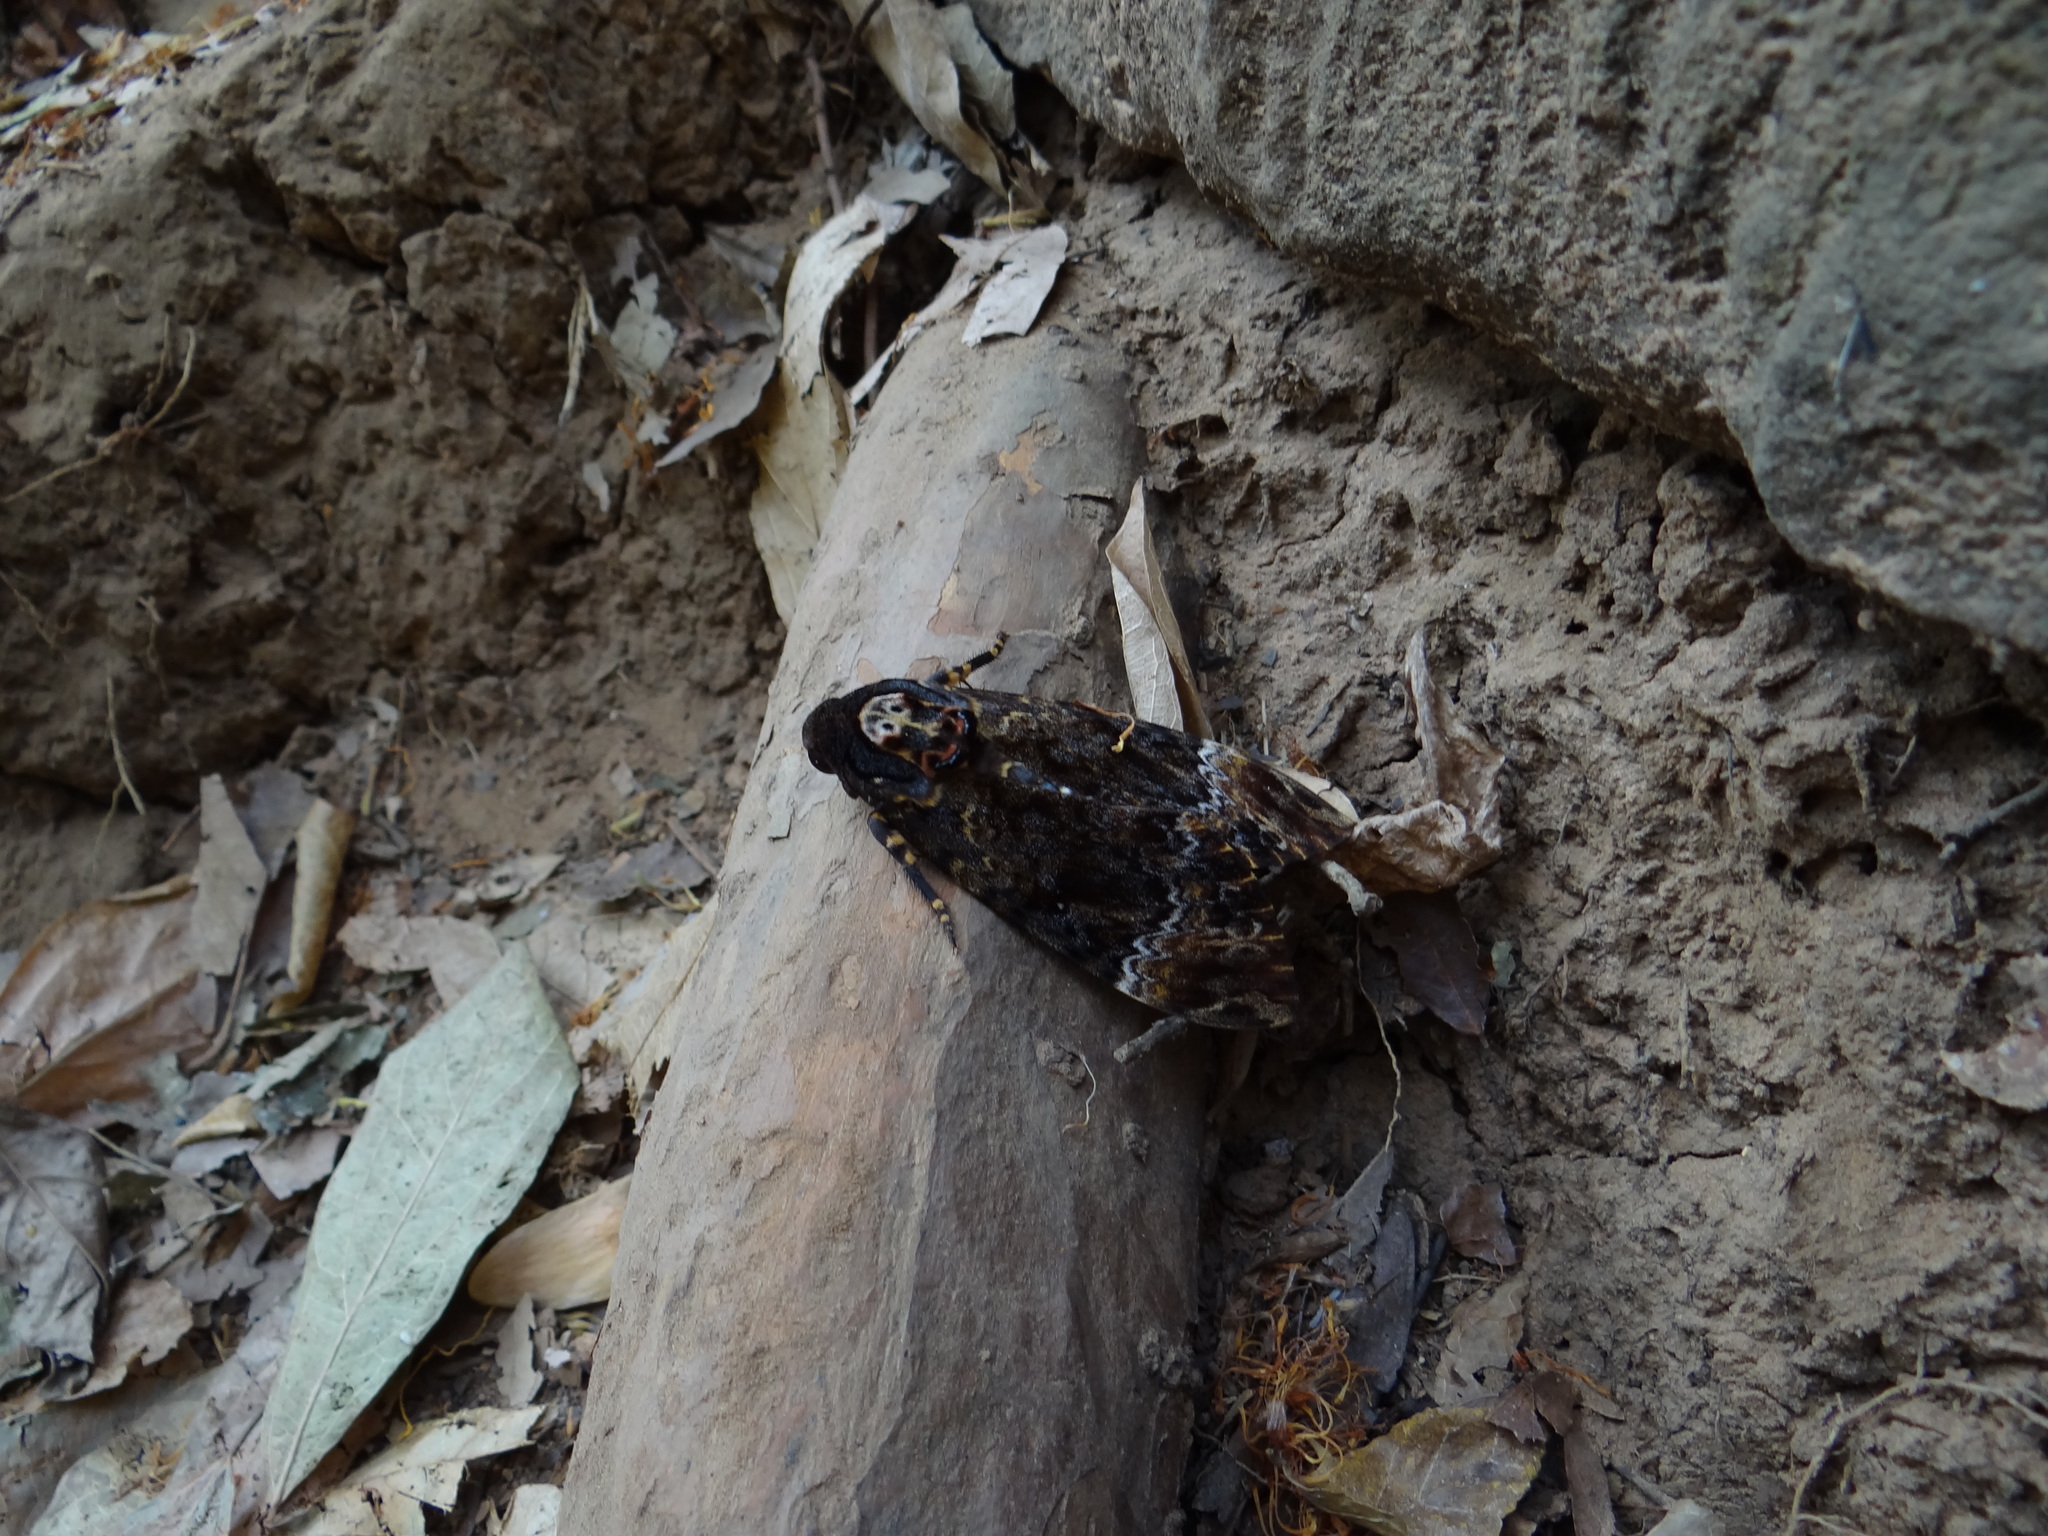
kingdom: Animalia
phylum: Arthropoda
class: Insecta
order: Lepidoptera
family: Sphingidae
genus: Acherontia
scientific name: Acherontia lachesis
